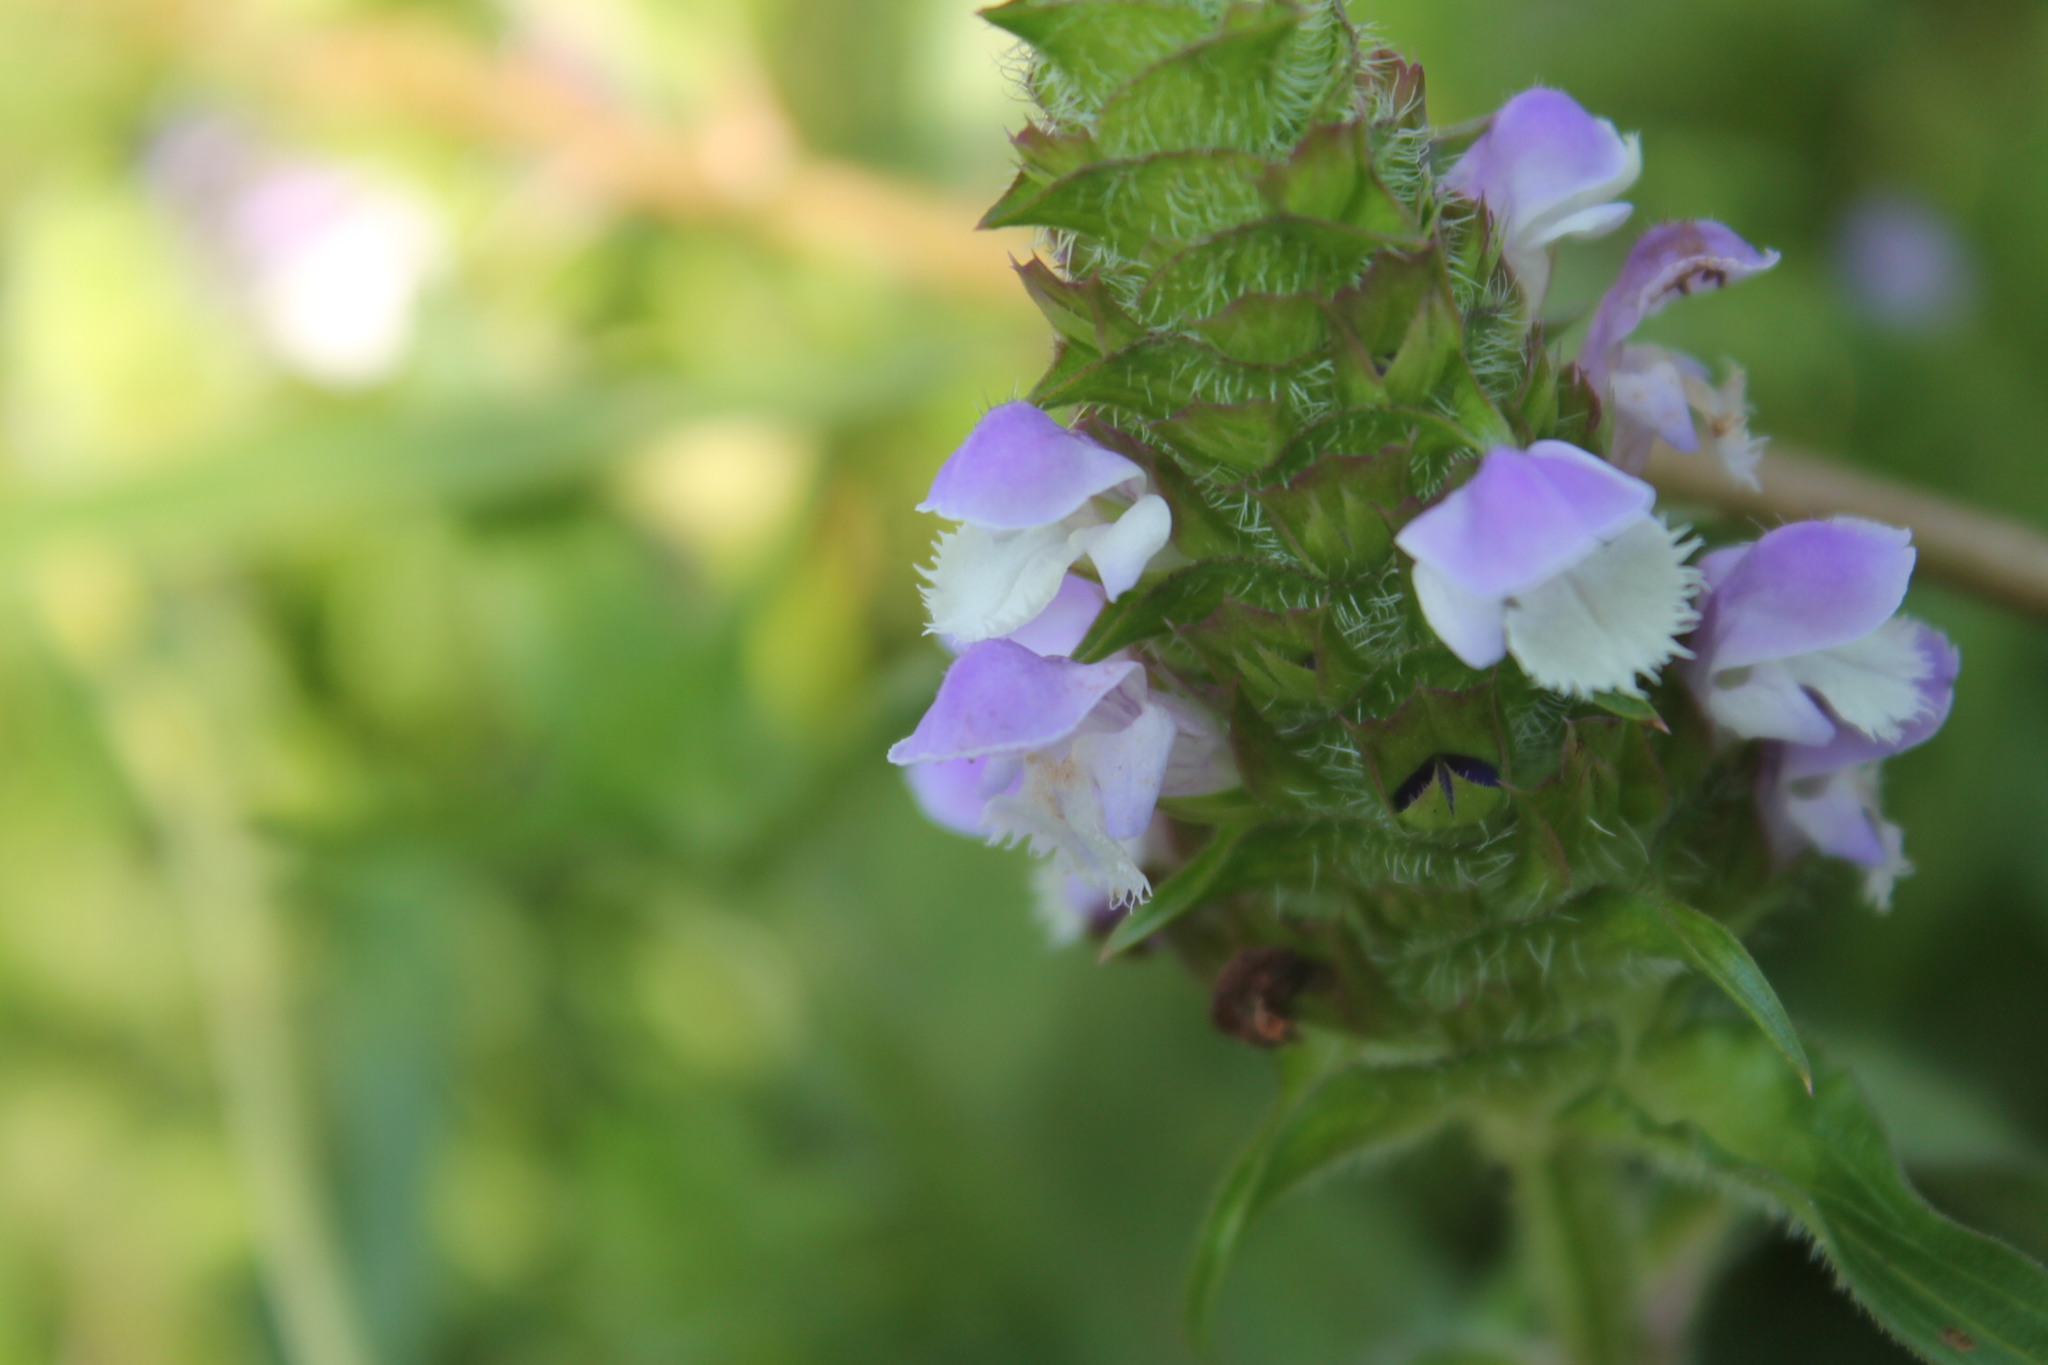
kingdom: Plantae
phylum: Tracheophyta
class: Magnoliopsida
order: Lamiales
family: Lamiaceae
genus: Prunella
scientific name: Prunella vulgaris
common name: Heal-all
